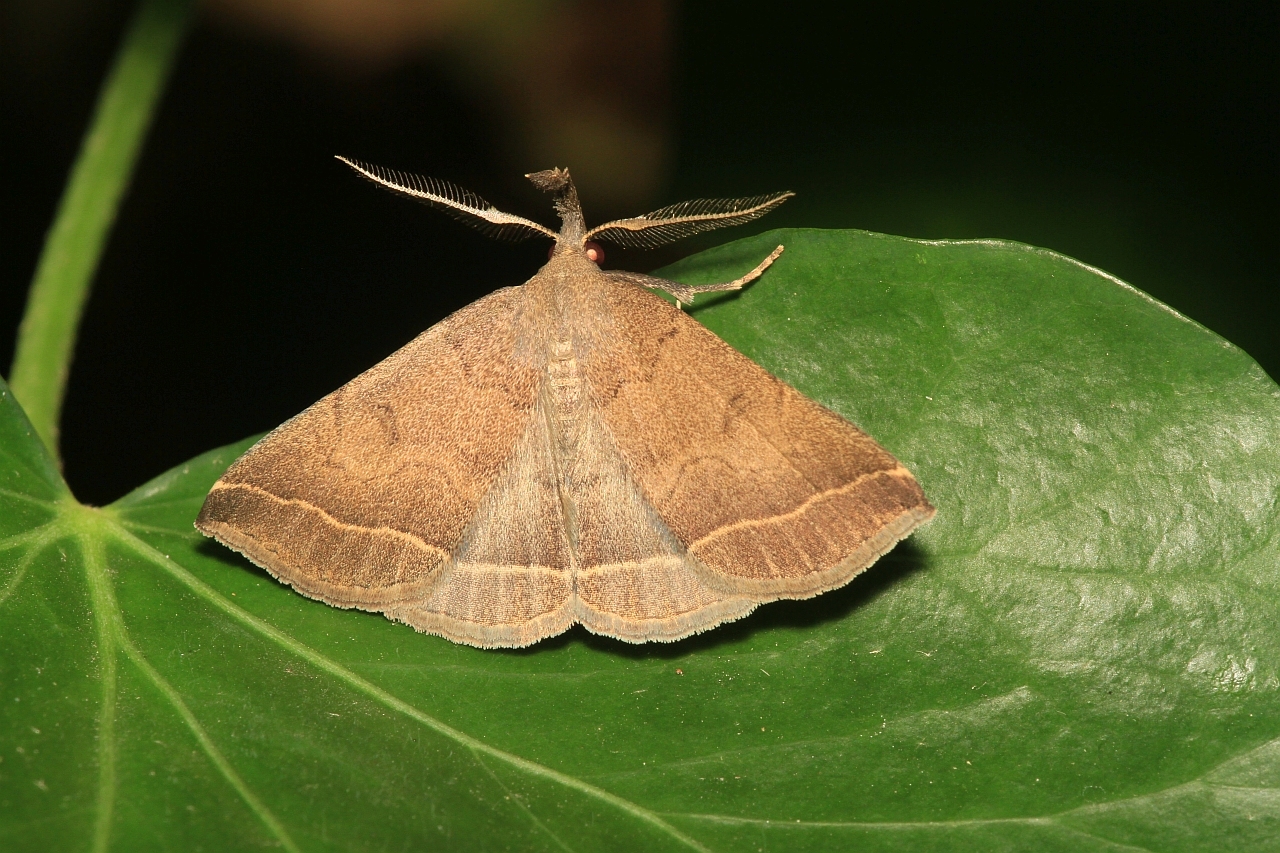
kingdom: Animalia
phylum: Arthropoda
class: Insecta
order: Lepidoptera
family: Erebidae
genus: Pechipogo
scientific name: Pechipogo plumigeralis
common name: Plumed fan-foot
